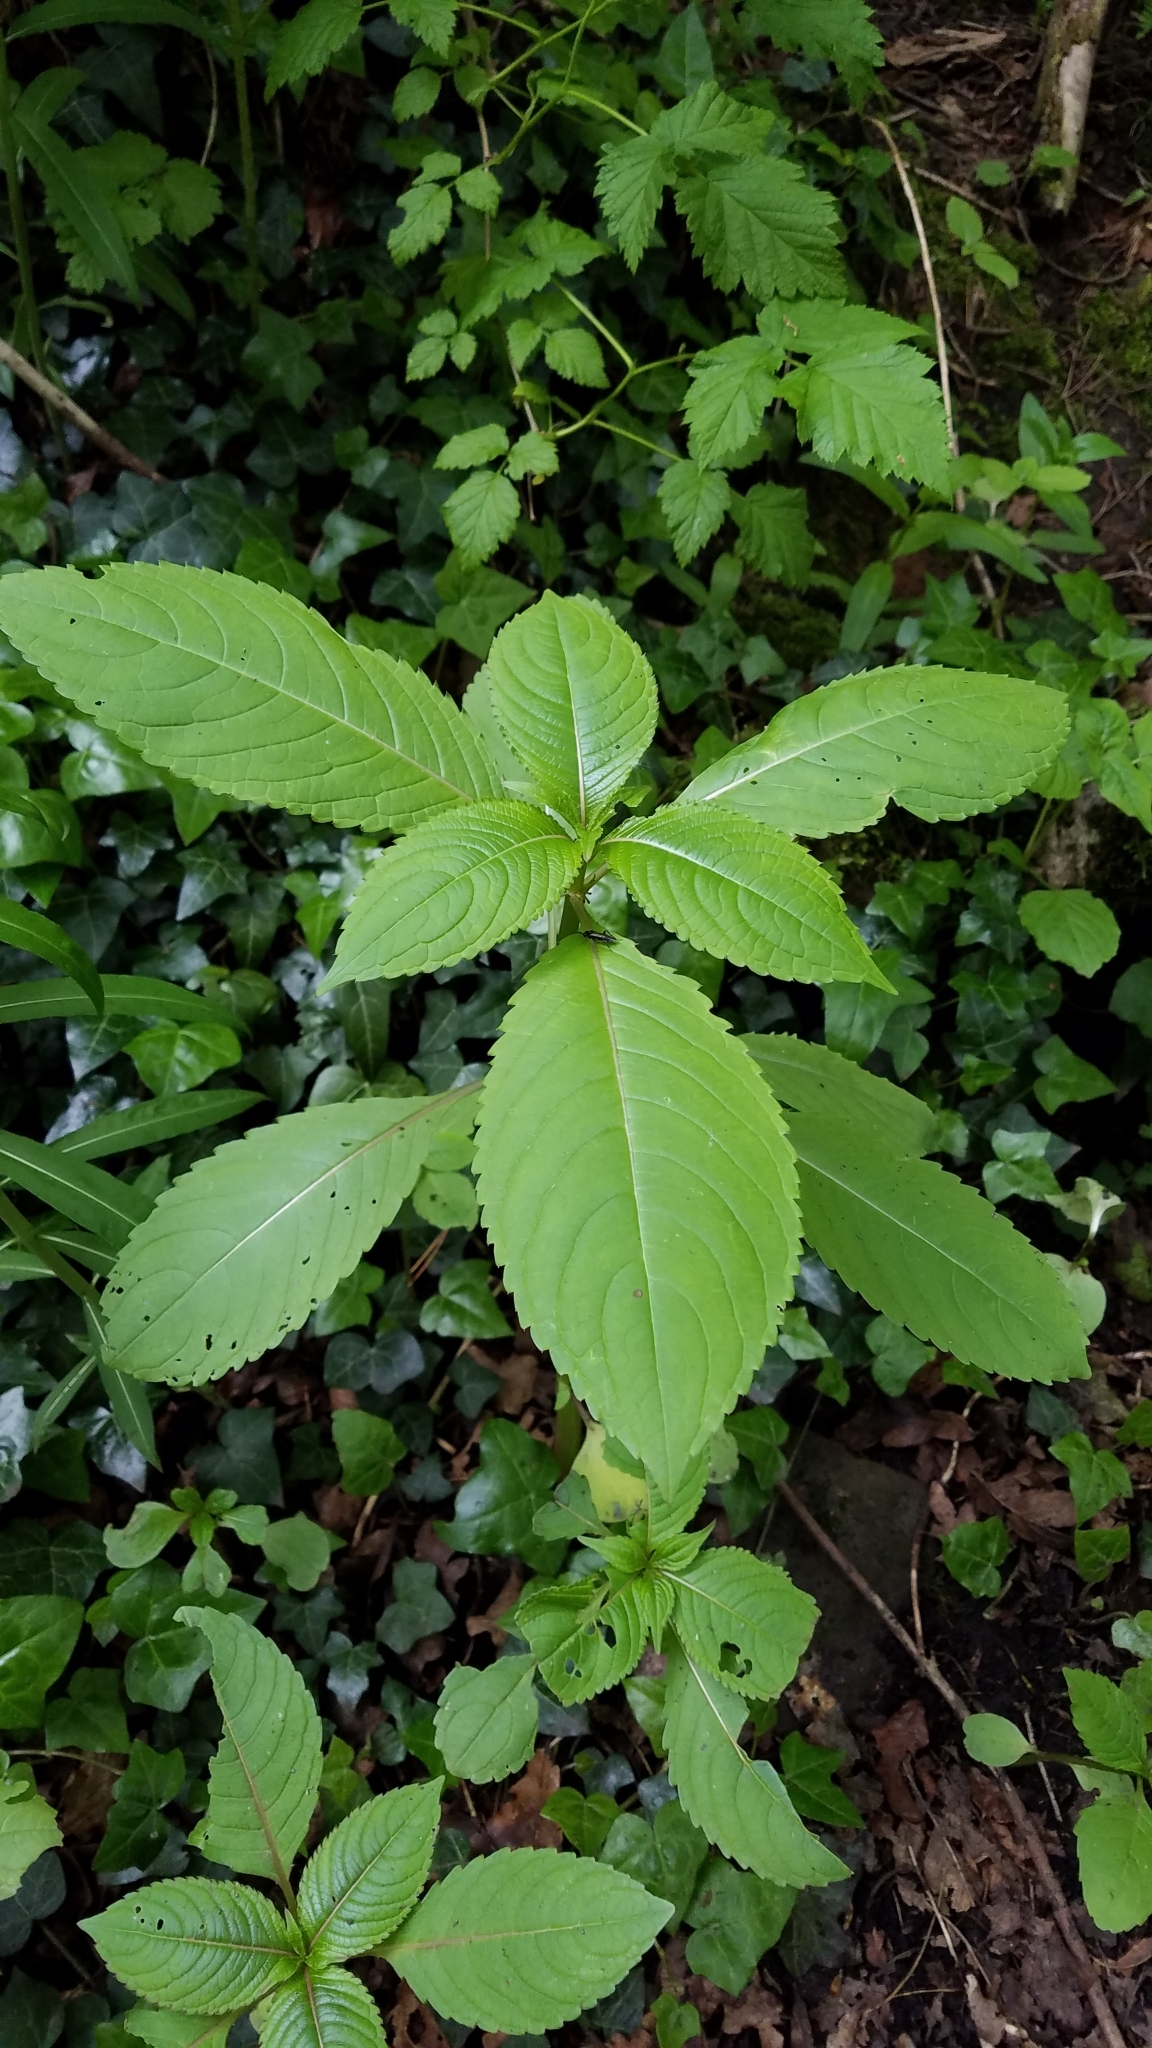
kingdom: Plantae
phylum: Tracheophyta
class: Magnoliopsida
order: Ericales
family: Balsaminaceae
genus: Impatiens
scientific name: Impatiens glandulifera
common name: Himalayan balsam
